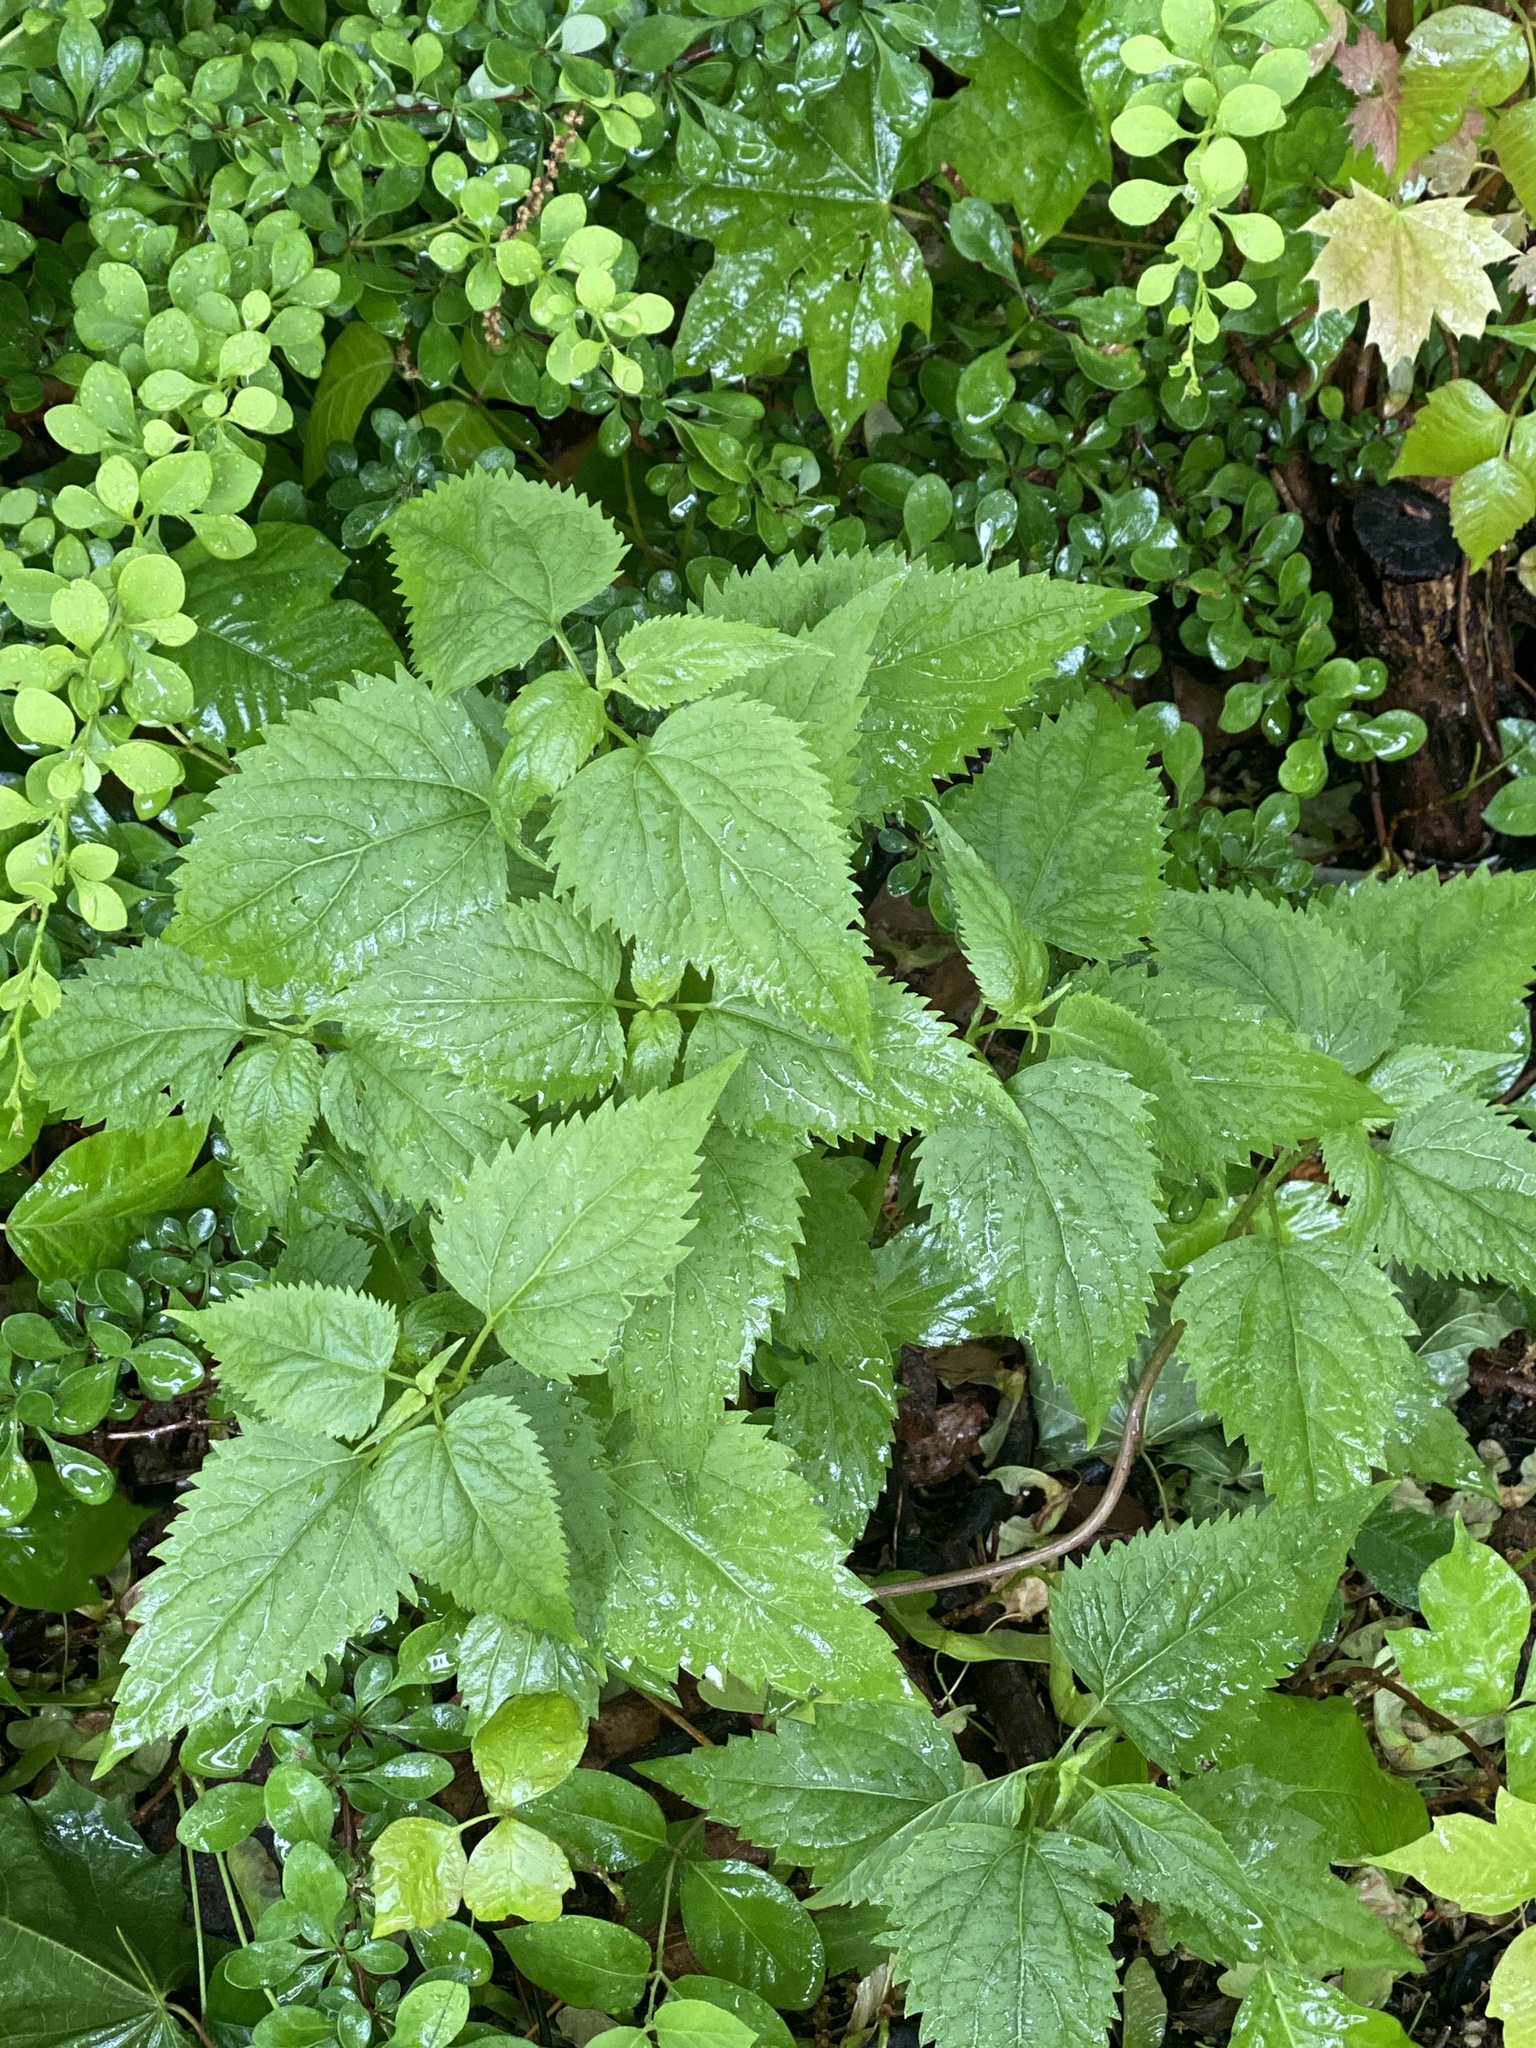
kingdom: Plantae
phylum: Tracheophyta
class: Magnoliopsida
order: Asterales
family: Asteraceae
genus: Ageratina
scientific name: Ageratina altissima
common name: White snakeroot
